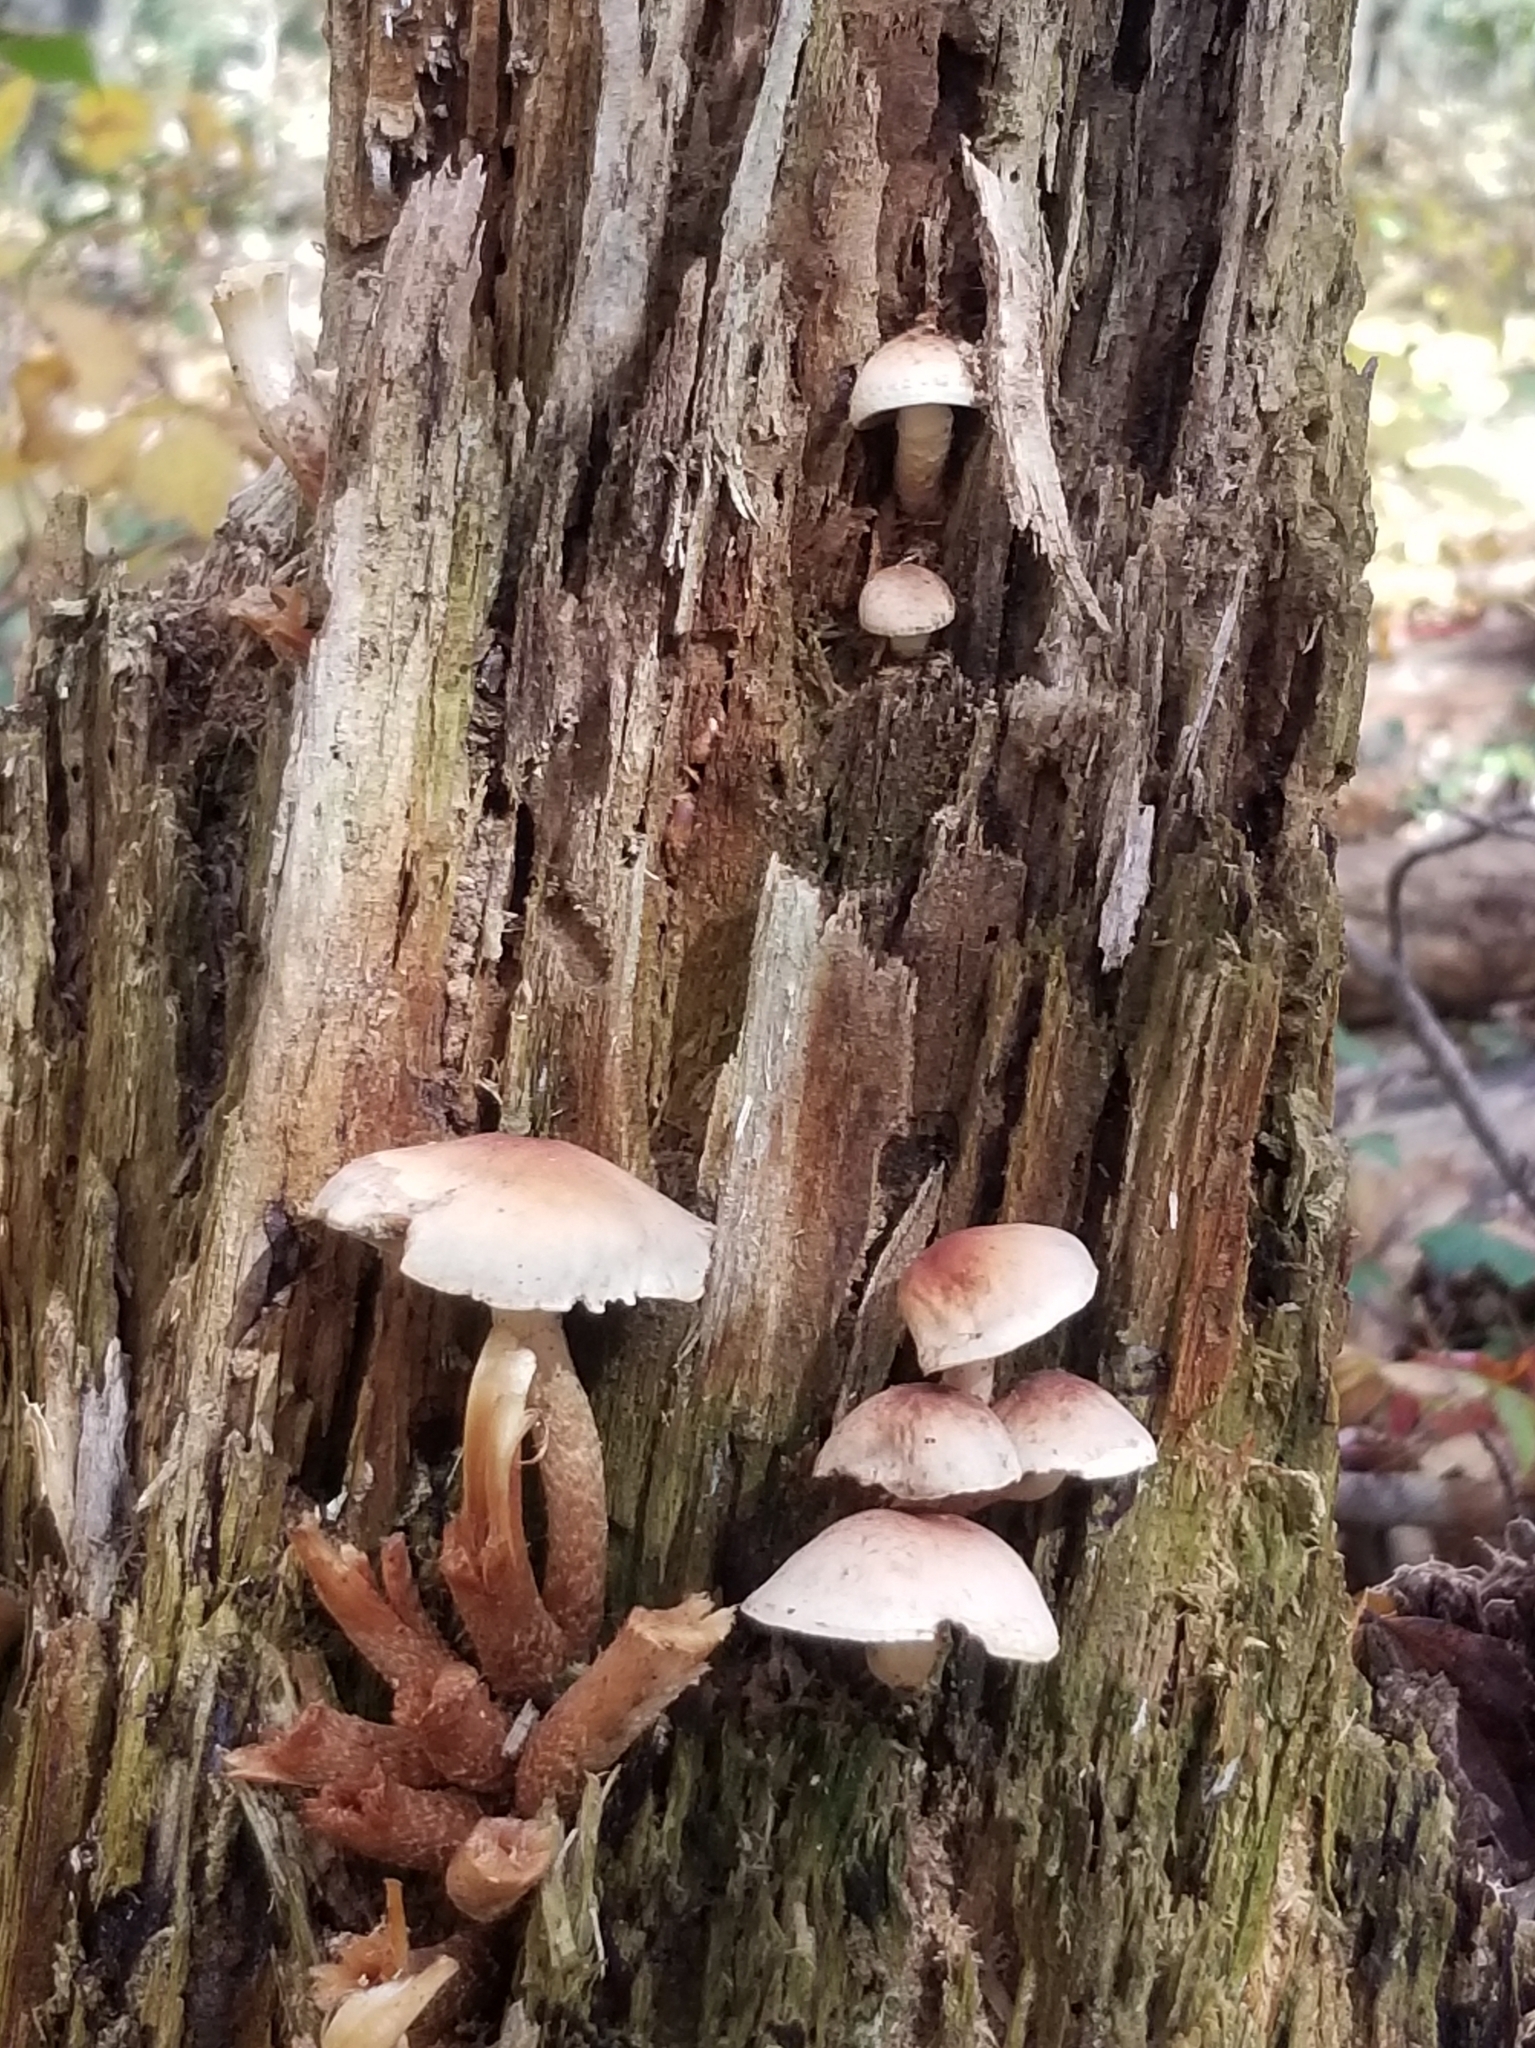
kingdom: Fungi
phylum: Basidiomycota
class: Agaricomycetes
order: Agaricales
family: Strophariaceae
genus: Hypholoma
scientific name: Hypholoma lateritium
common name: Brick caps
